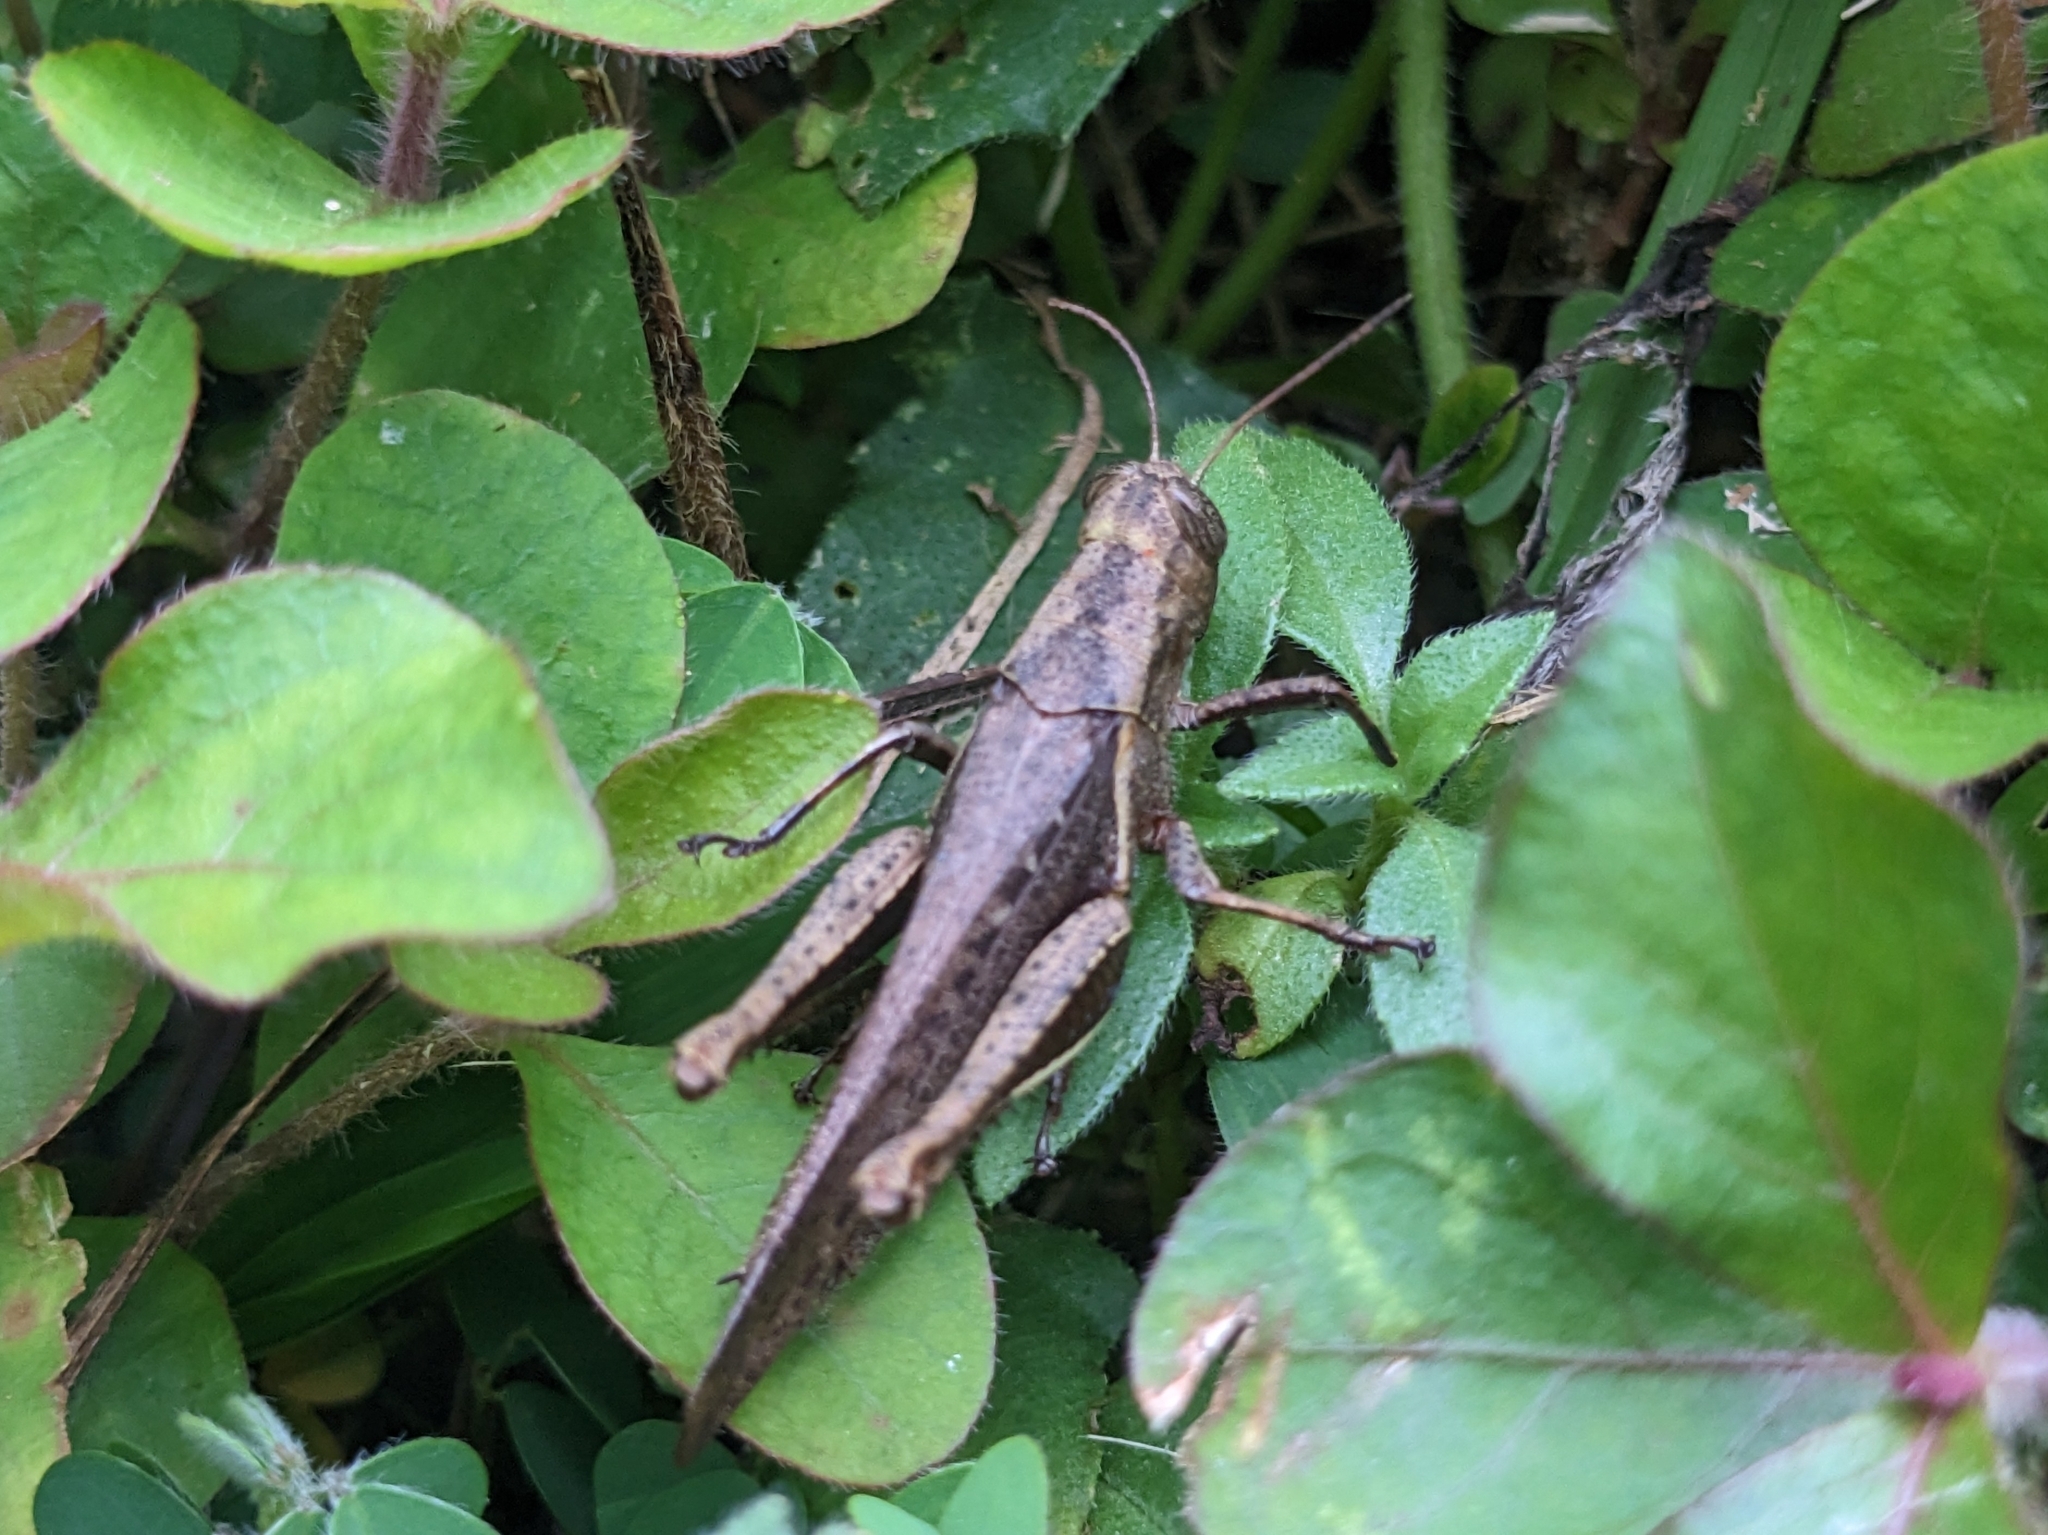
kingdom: Animalia
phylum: Arthropoda
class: Insecta
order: Orthoptera
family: Acrididae
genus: Abracris
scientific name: Abracris flavolineata
